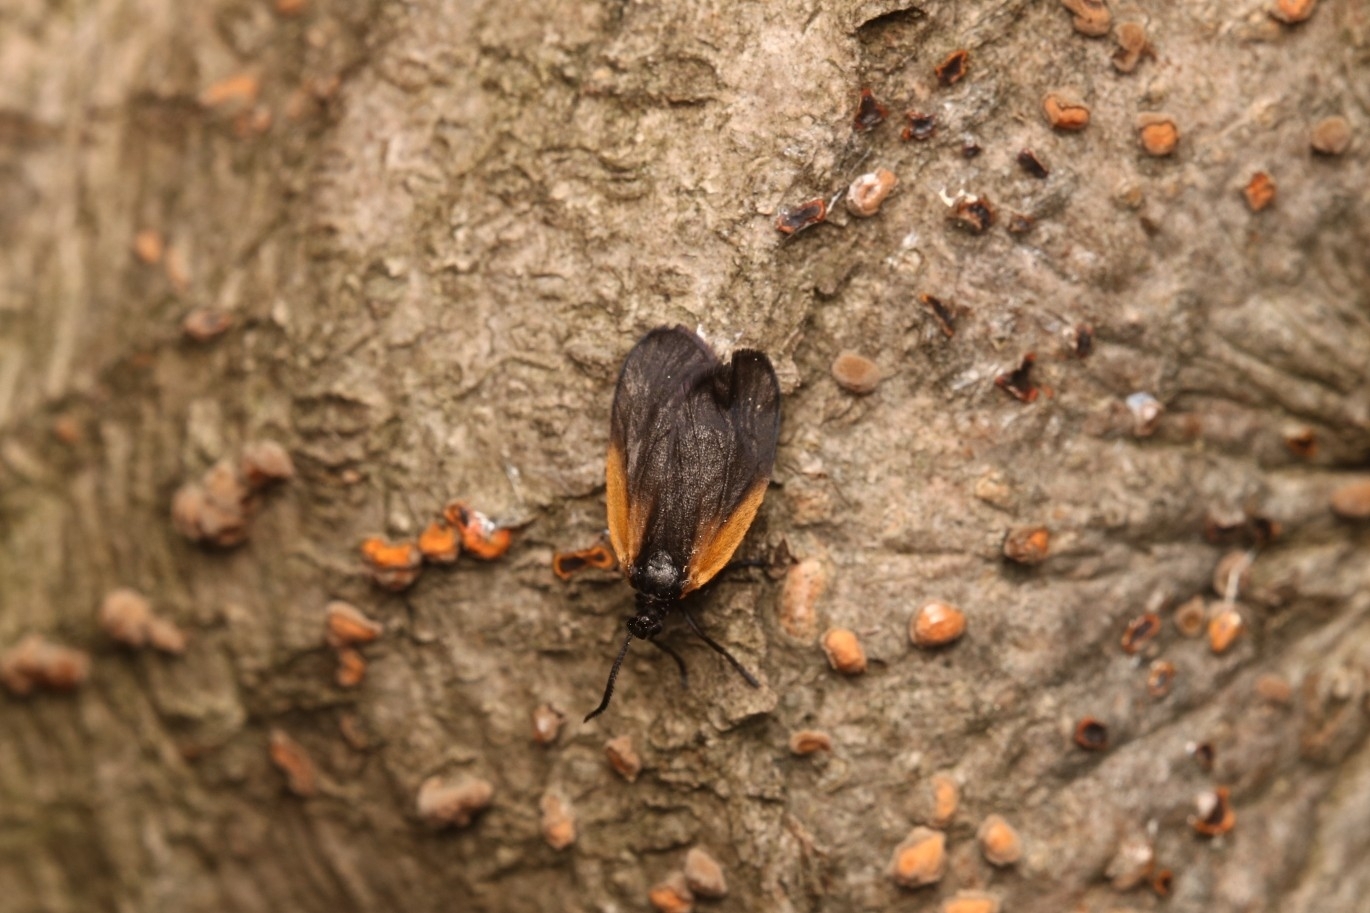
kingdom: Animalia
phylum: Arthropoda
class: Insecta
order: Lepidoptera
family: Zygaenidae
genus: Malthaca
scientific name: Malthaca dimidiata
